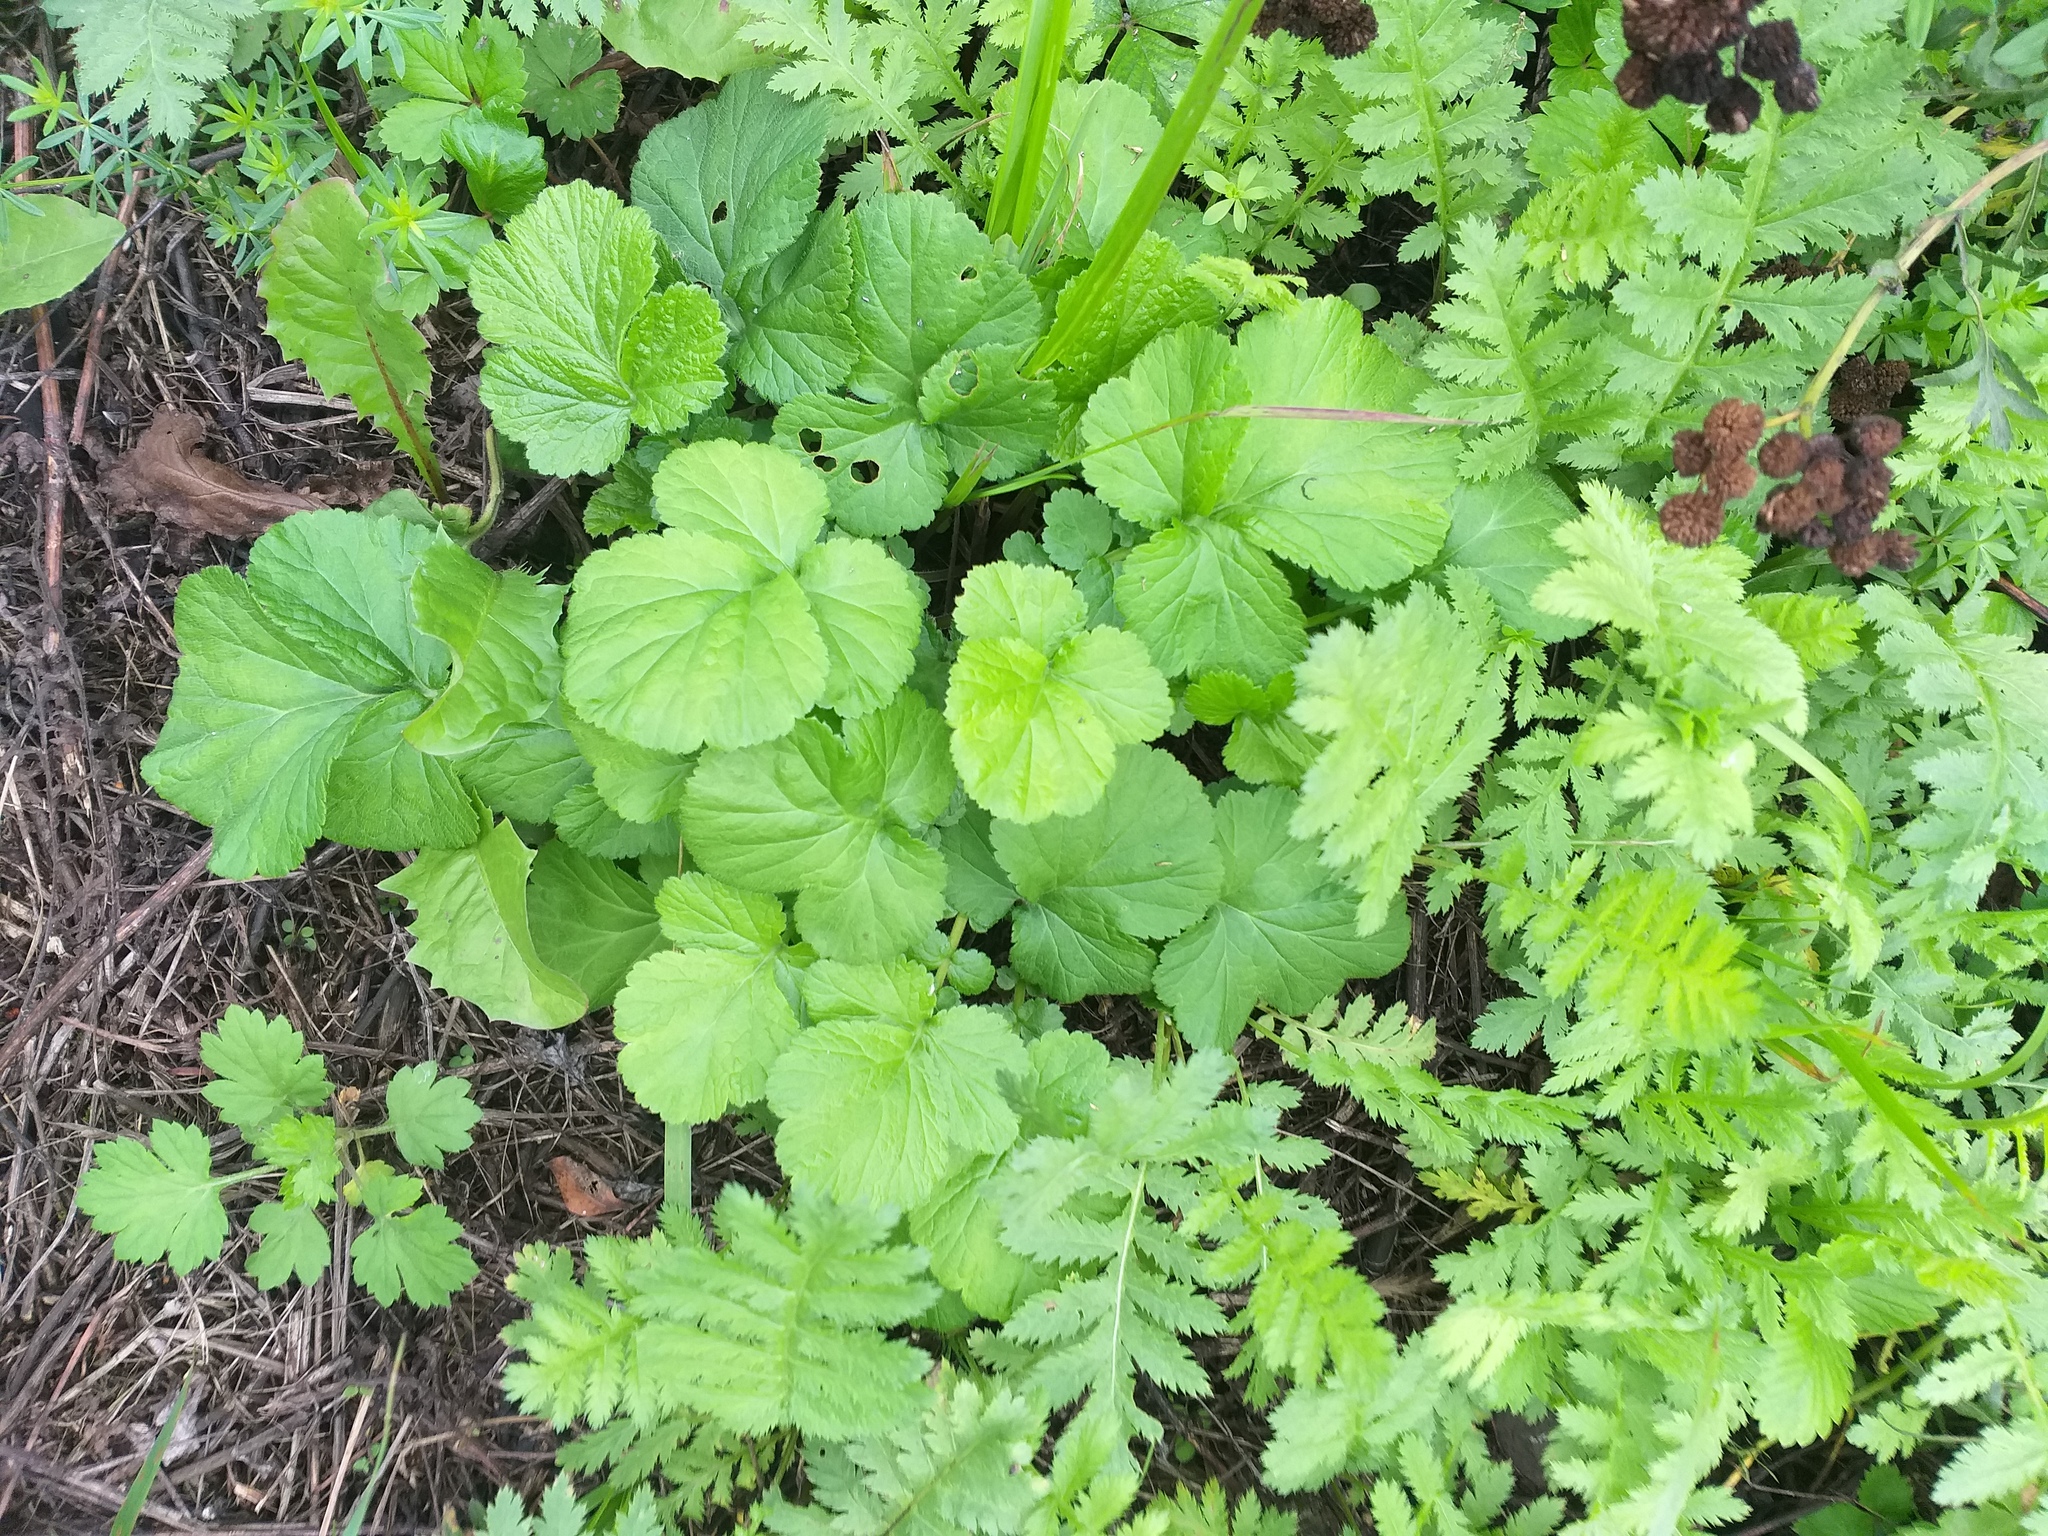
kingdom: Plantae
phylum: Tracheophyta
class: Magnoliopsida
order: Rosales
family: Rosaceae
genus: Geum
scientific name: Geum urbanum
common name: Wood avens
